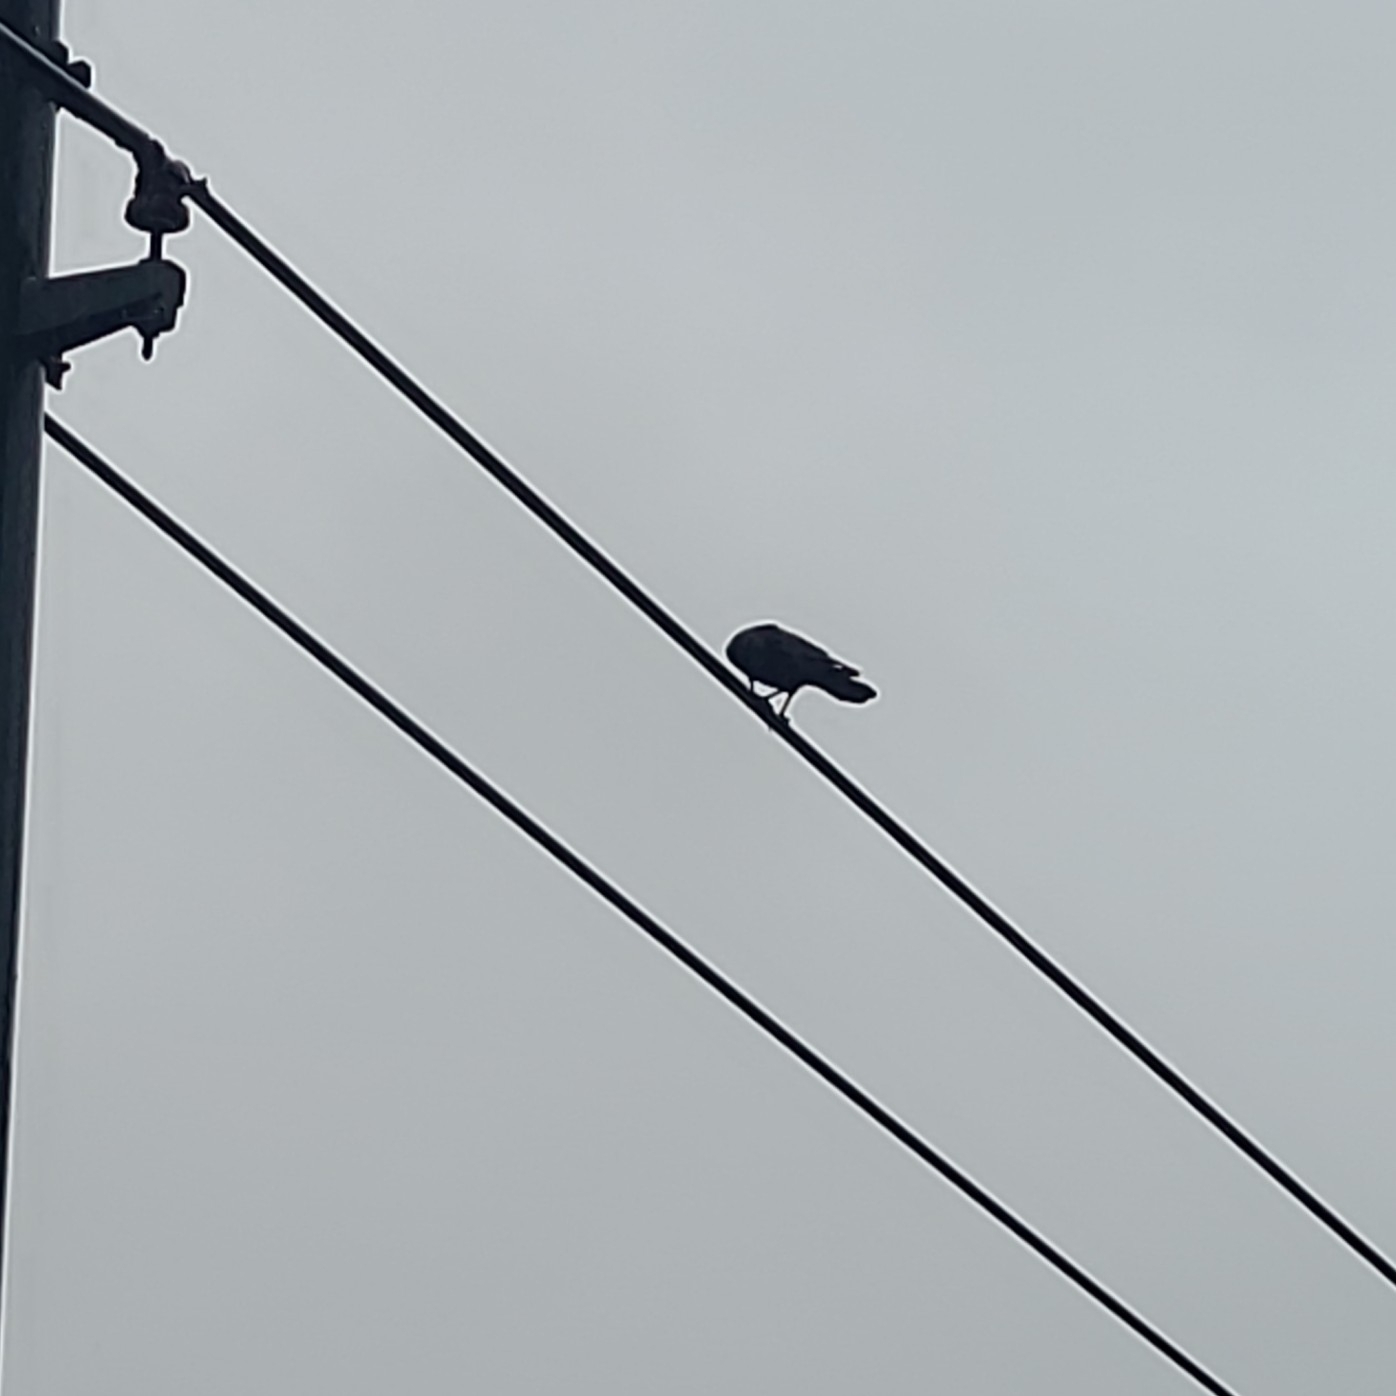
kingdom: Animalia
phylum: Chordata
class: Aves
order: Passeriformes
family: Corvidae
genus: Corvus
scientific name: Corvus brachyrhynchos
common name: American crow
